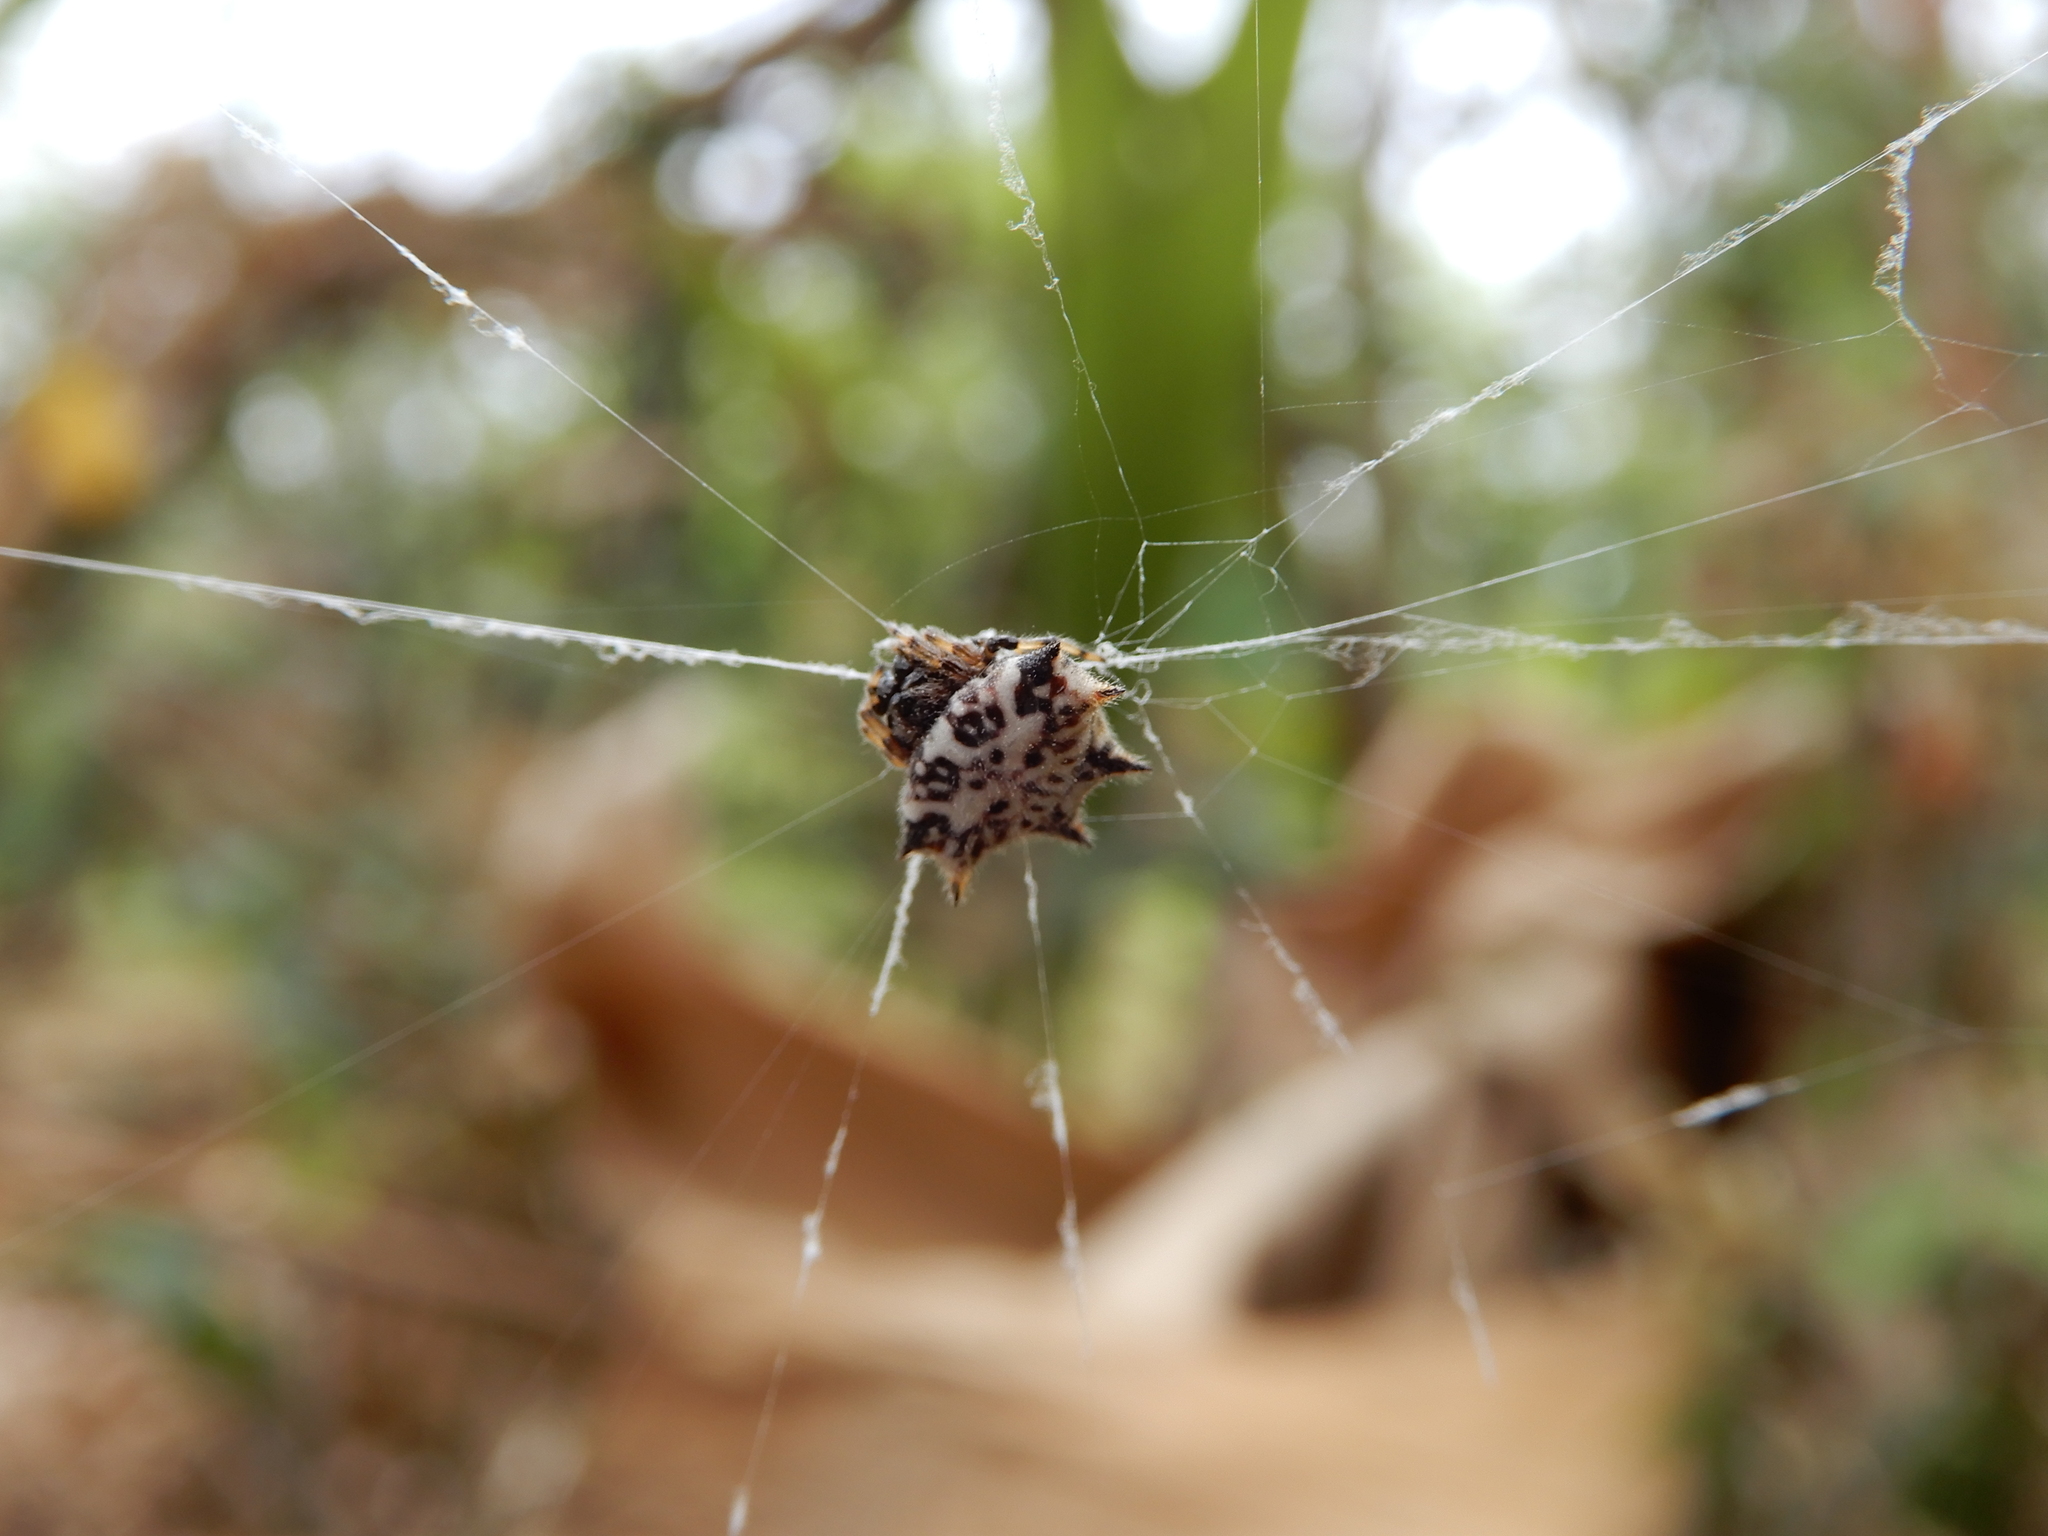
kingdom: Animalia
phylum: Arthropoda
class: Arachnida
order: Araneae
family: Araneidae
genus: Gasteracantha
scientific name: Gasteracantha kuhli
